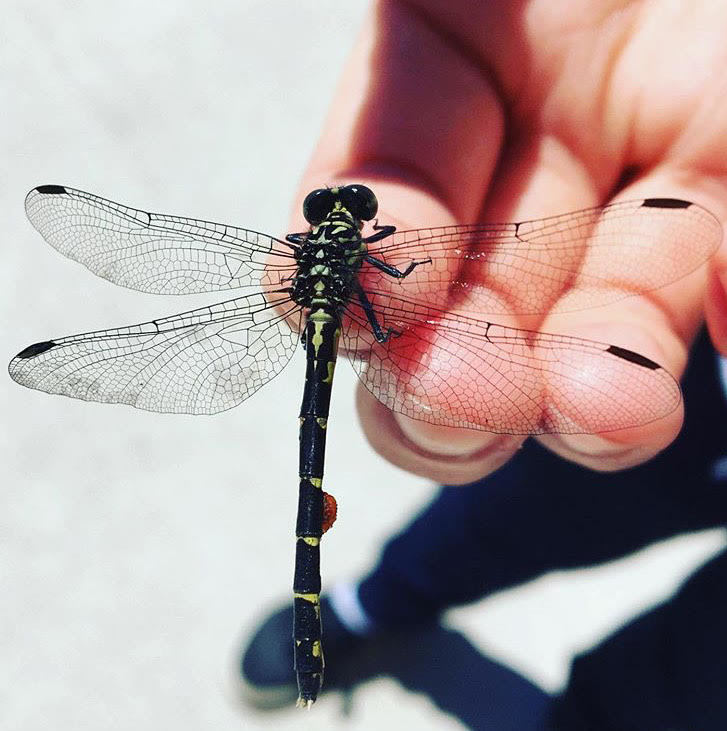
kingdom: Animalia
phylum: Arthropoda
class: Insecta
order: Odonata
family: Gomphidae
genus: Stylogomphus
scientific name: Stylogomphus albistylus
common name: Eastern least clubtail
